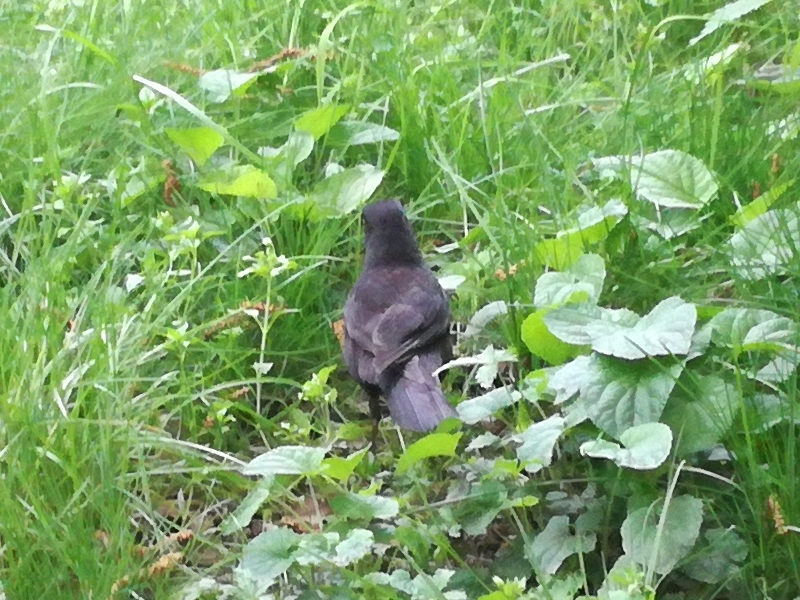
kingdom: Animalia
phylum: Chordata
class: Aves
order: Passeriformes
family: Turdidae
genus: Turdus
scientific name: Turdus merula
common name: Common blackbird
